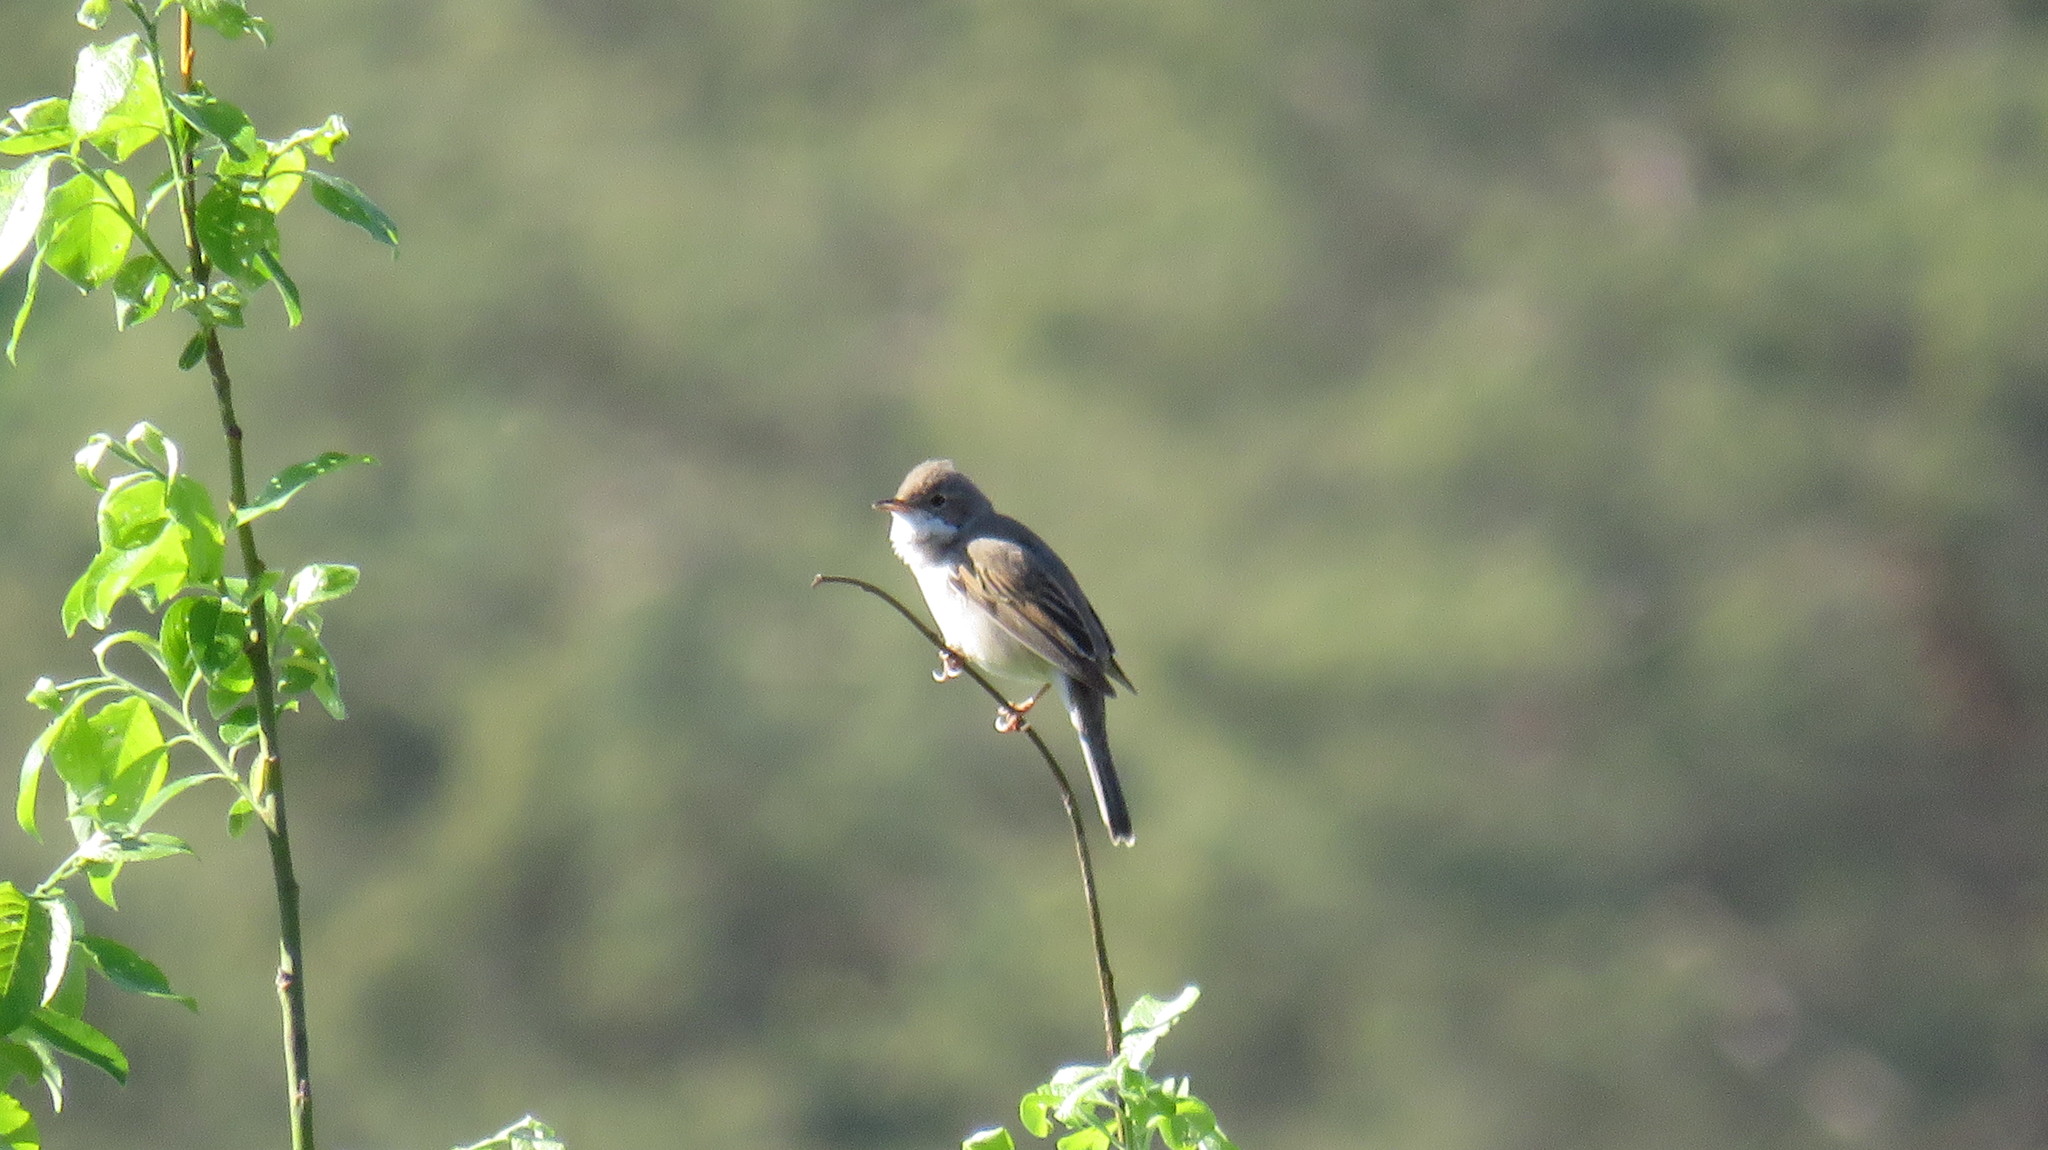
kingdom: Animalia
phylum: Chordata
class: Aves
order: Passeriformes
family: Sylviidae
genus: Sylvia
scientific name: Sylvia communis
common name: Common whitethroat
